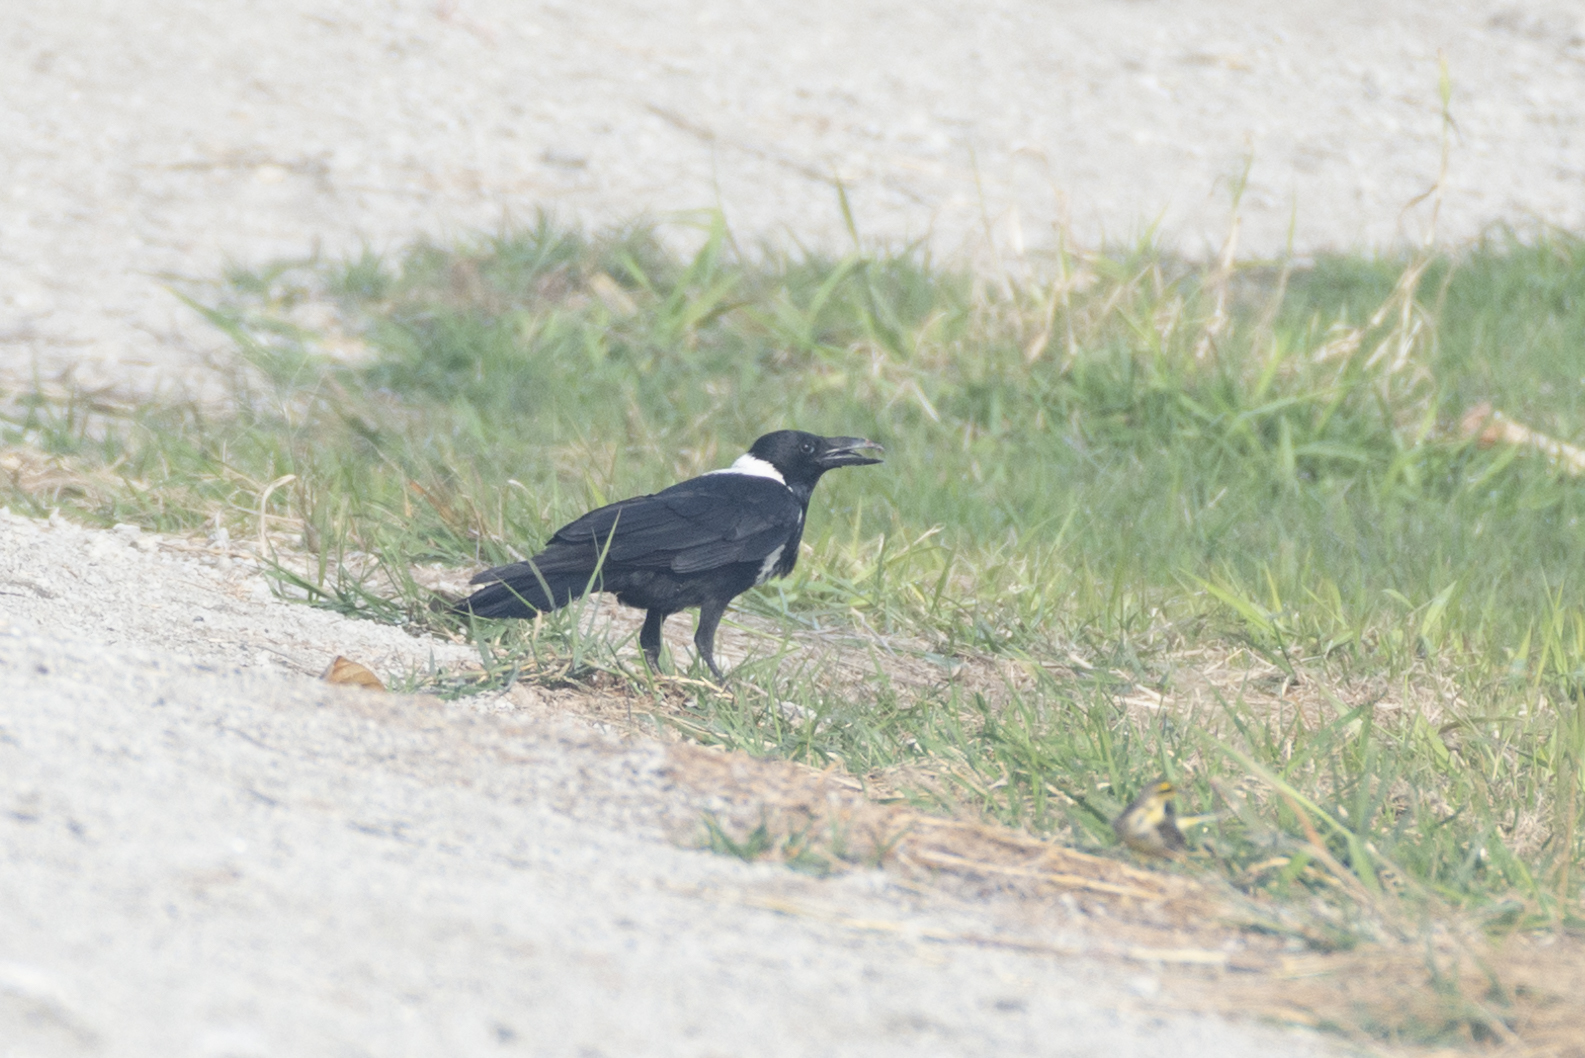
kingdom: Animalia
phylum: Chordata
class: Aves
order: Passeriformes
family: Corvidae
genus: Corvus
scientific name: Corvus pectoralis
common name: Collared crow
